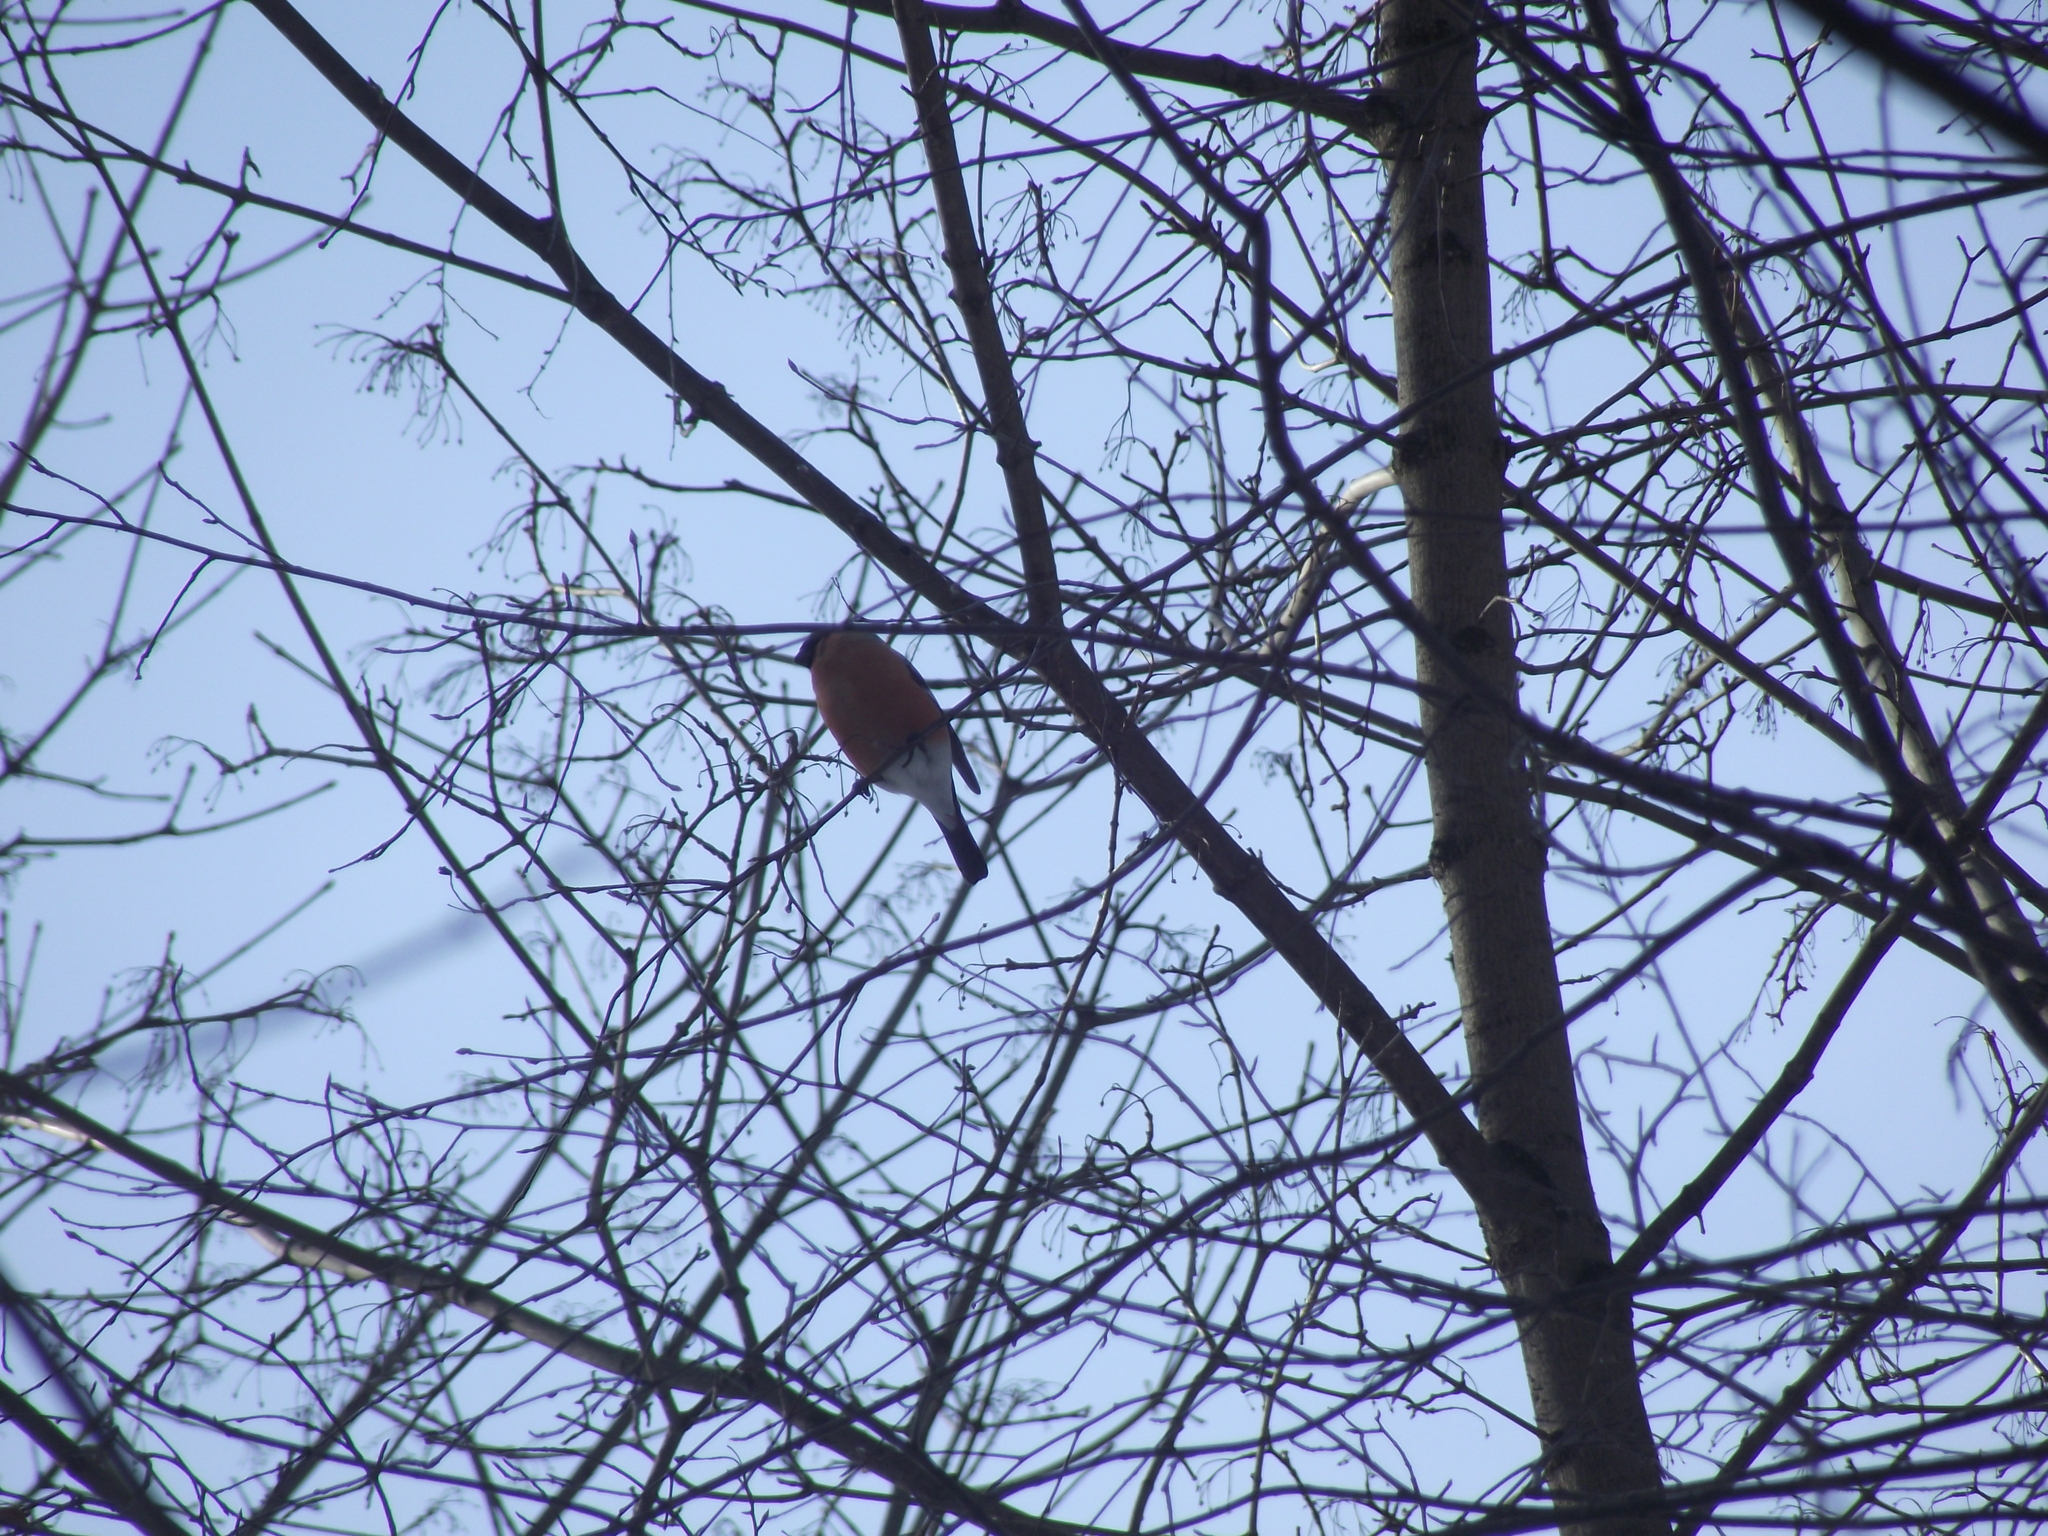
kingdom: Animalia
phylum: Chordata
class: Aves
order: Passeriformes
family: Fringillidae
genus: Pyrrhula
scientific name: Pyrrhula pyrrhula
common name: Eurasian bullfinch
